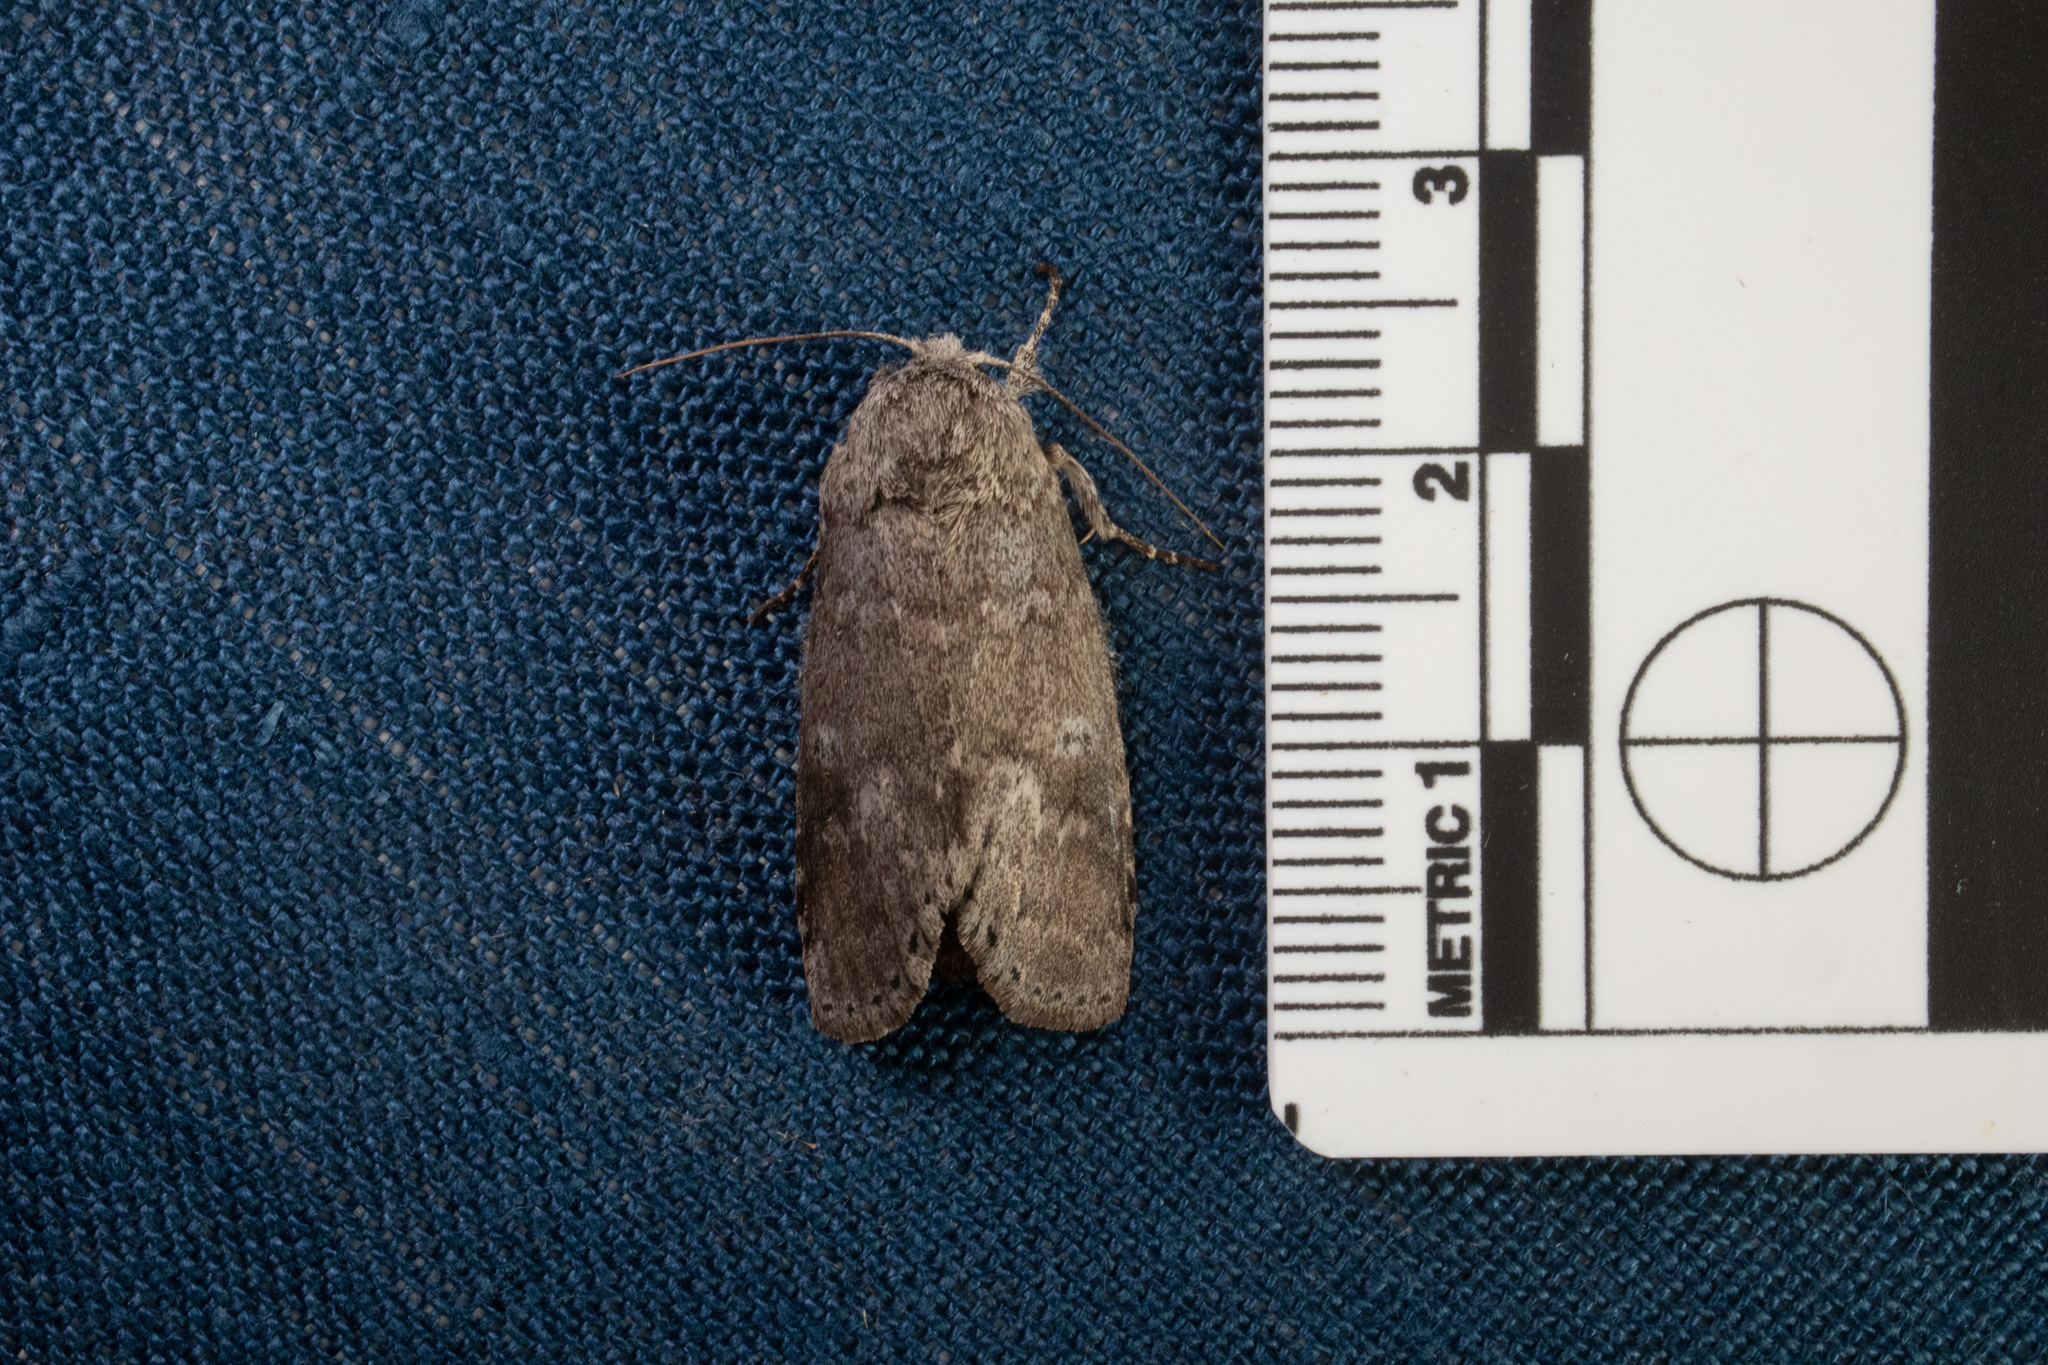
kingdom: Animalia
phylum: Arthropoda
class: Insecta
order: Lepidoptera
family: Notodontidae
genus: Lochmaeus
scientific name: Lochmaeus manteo
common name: Variable oakleaf caterpillar moth
